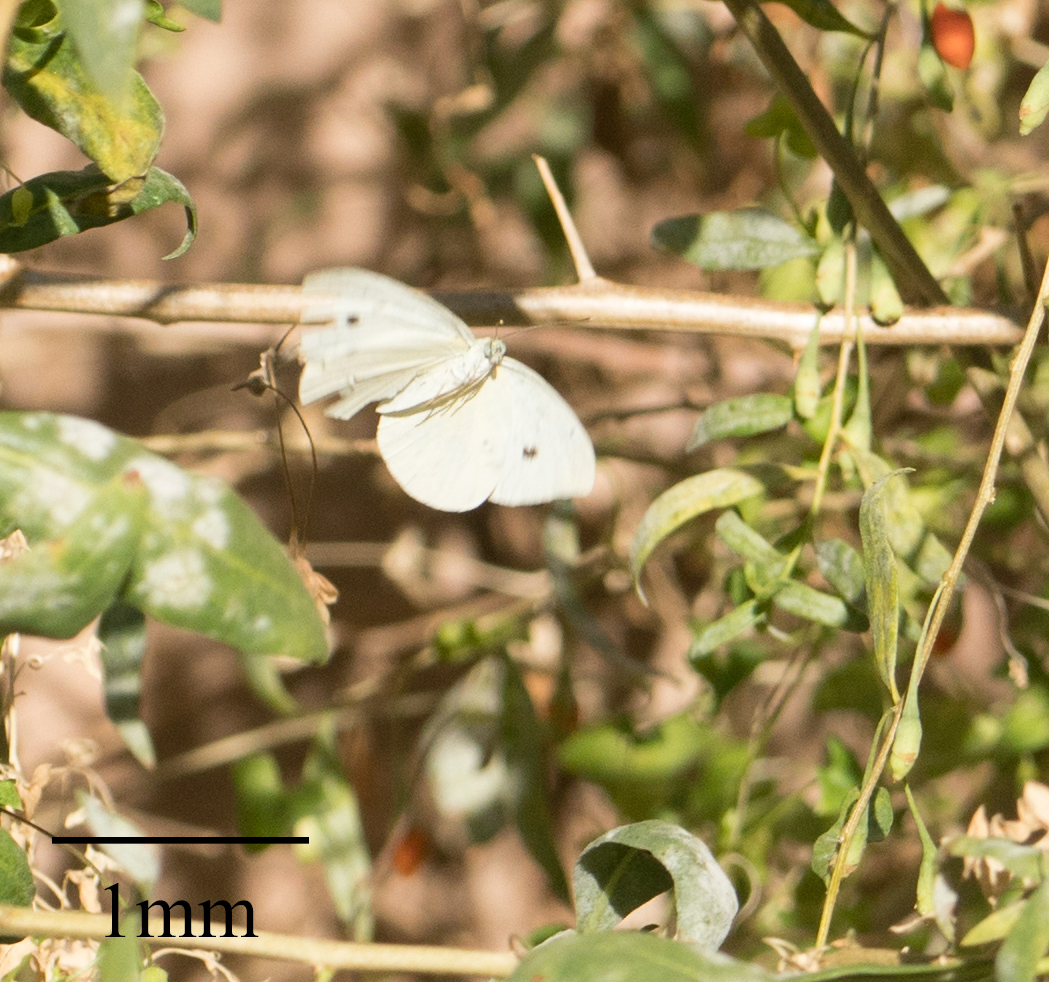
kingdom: Animalia
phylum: Arthropoda
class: Insecta
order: Lepidoptera
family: Pieridae
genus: Pieris
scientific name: Pieris rapae
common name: Small white
